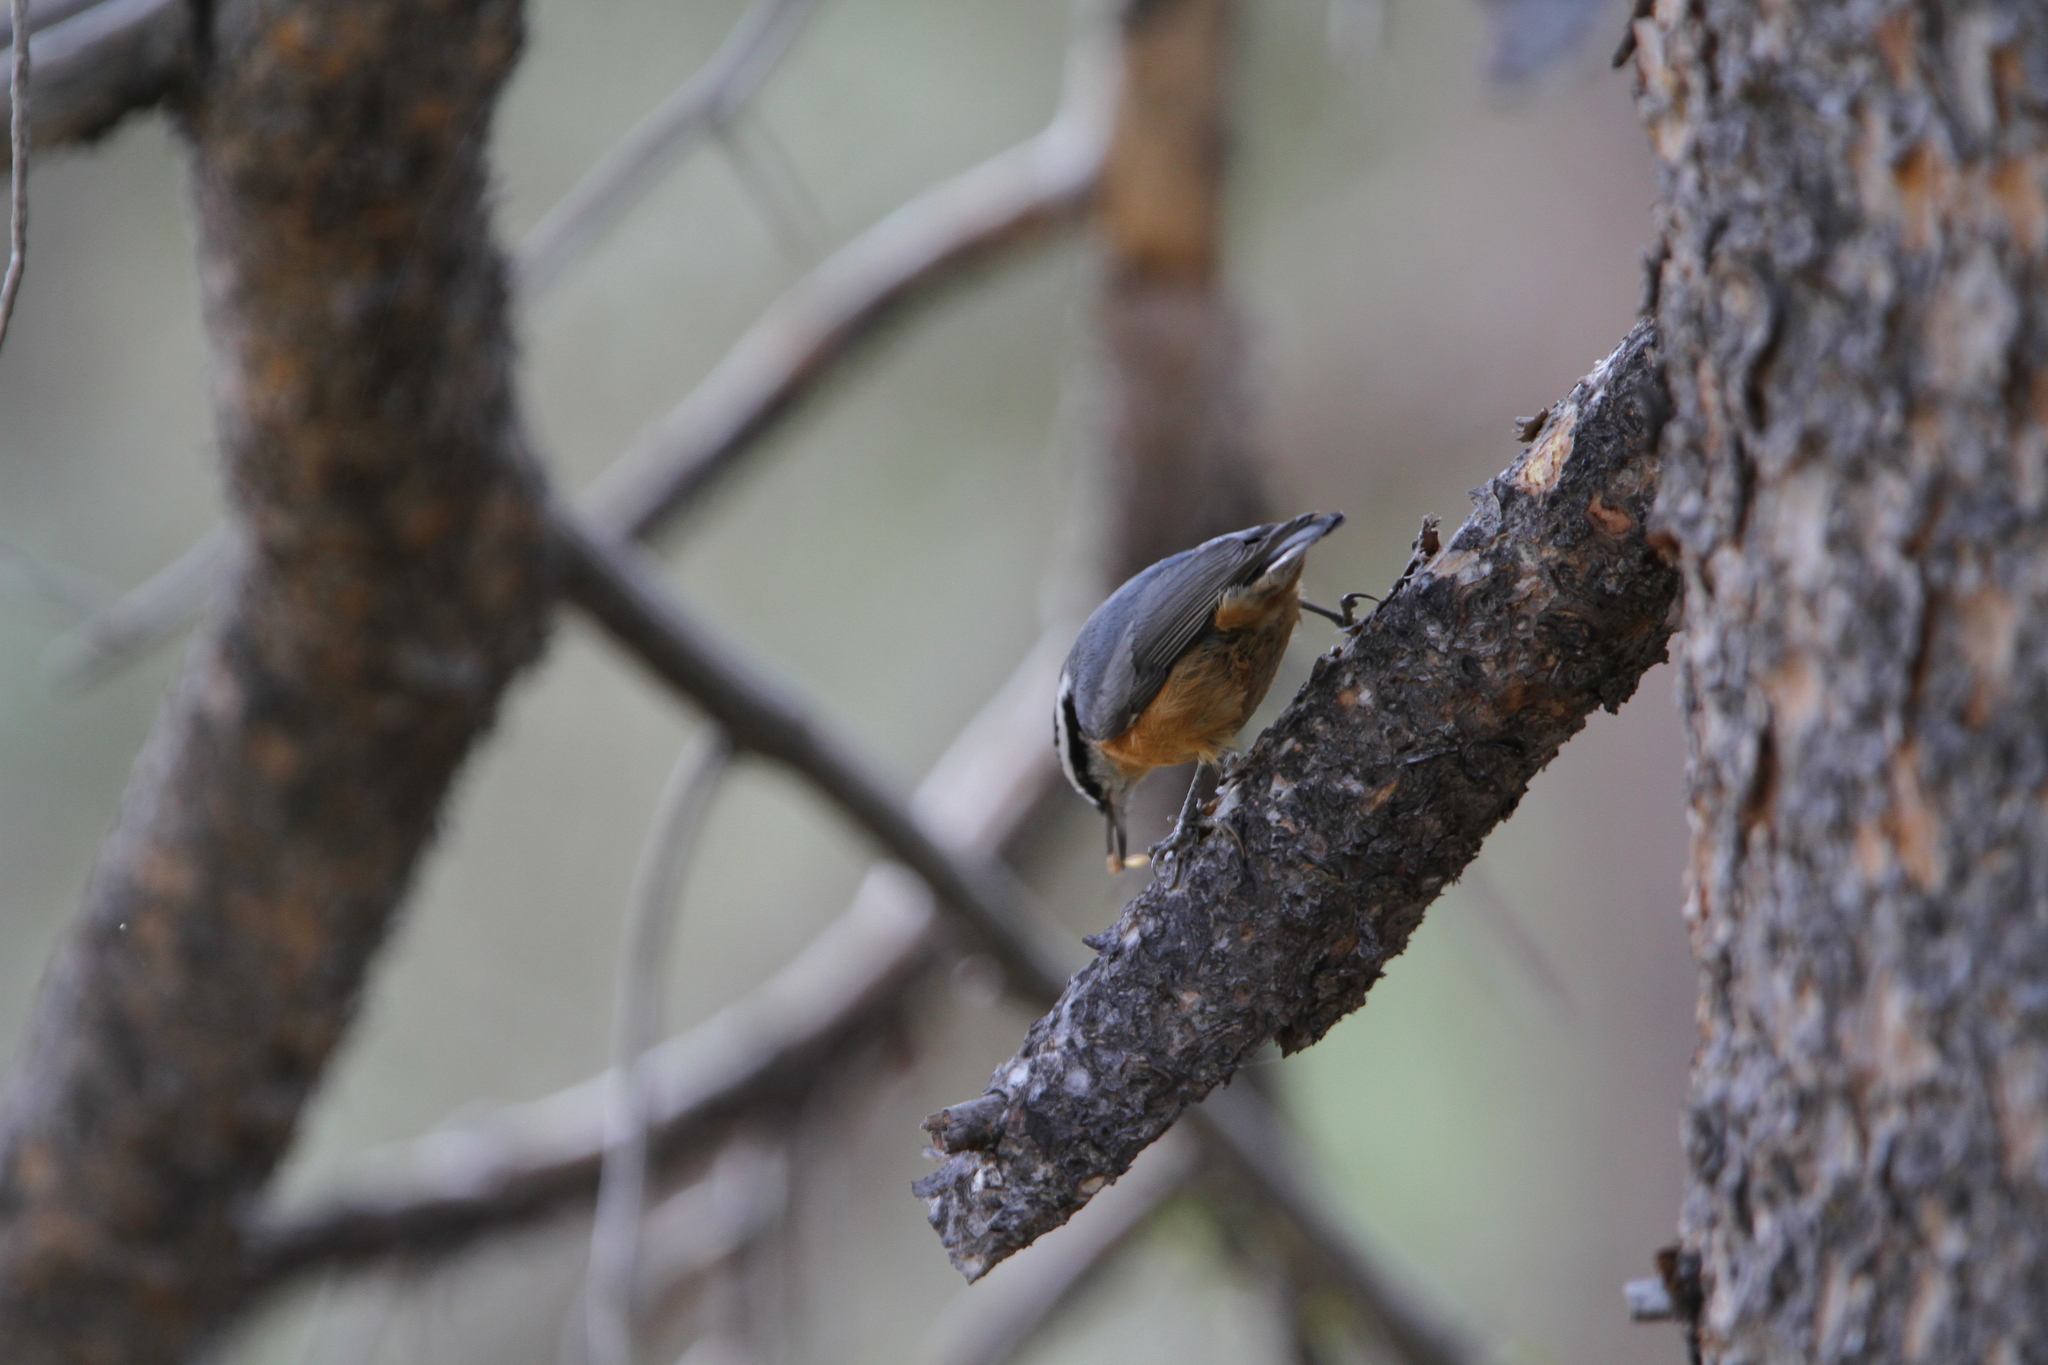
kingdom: Animalia
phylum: Chordata
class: Aves
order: Passeriformes
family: Sittidae
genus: Sitta
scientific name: Sitta canadensis
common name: Red-breasted nuthatch
